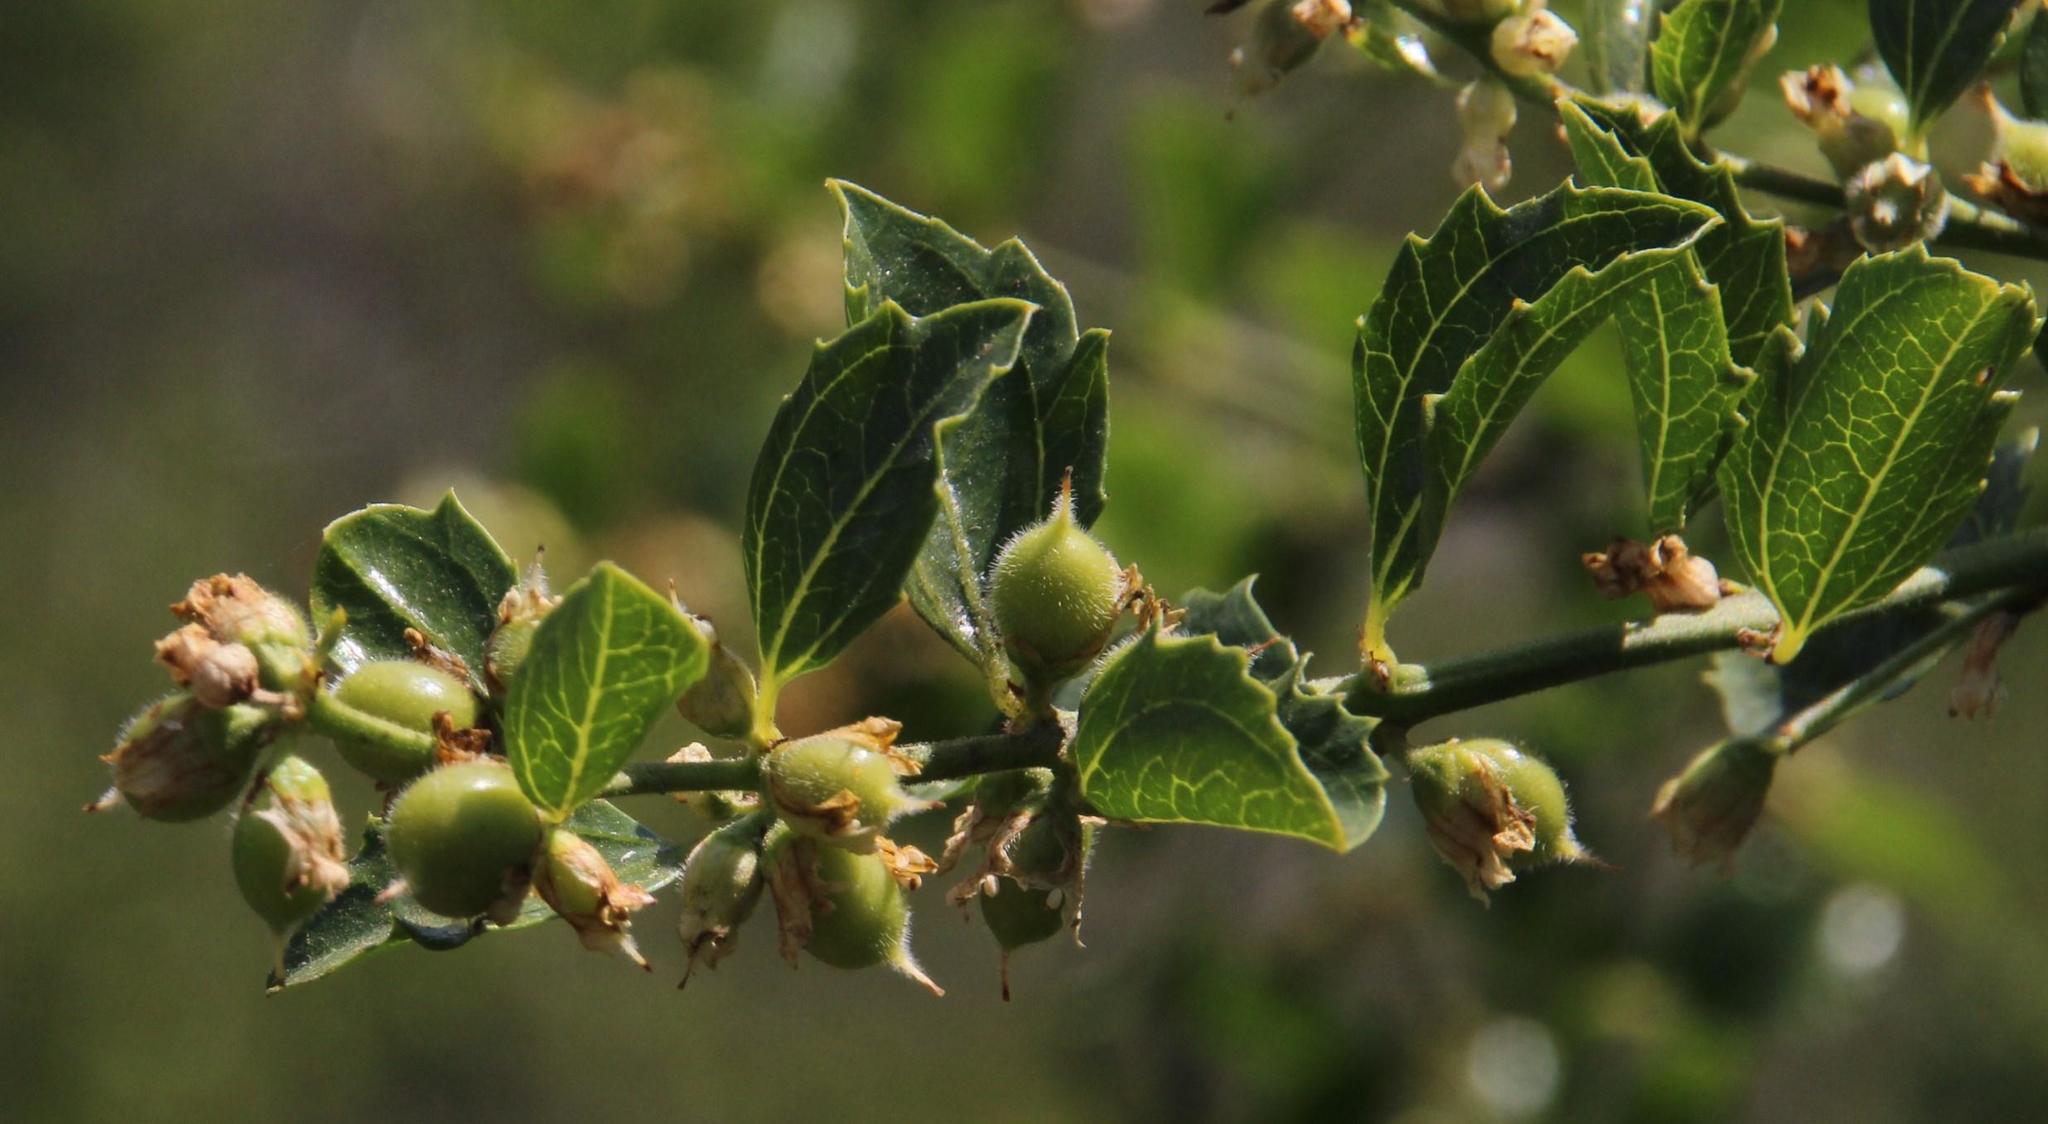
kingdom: Plantae
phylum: Tracheophyta
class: Magnoliopsida
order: Rosales
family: Rhamnaceae
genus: Retanilla
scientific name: Retanilla trinervia
